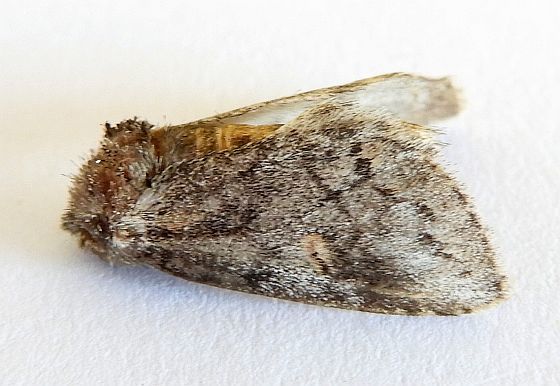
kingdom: Animalia
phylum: Arthropoda
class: Insecta
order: Lepidoptera
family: Notodontidae
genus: Kalkoma
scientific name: Kalkoma zapata
